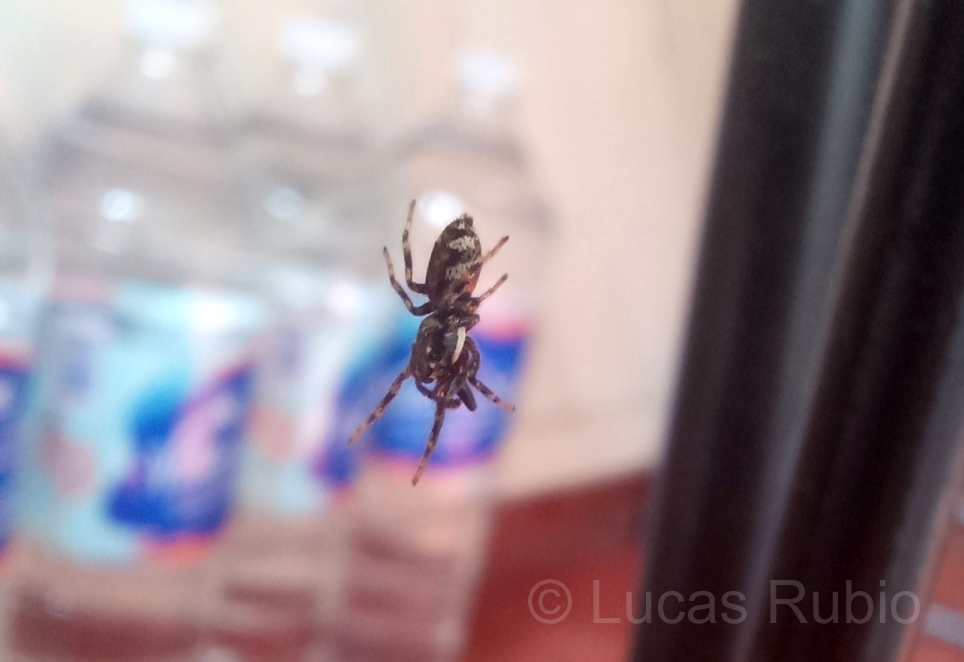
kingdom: Animalia
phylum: Arthropoda
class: Arachnida
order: Araneae
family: Salticidae
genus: Salticus
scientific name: Salticus mutabilis
